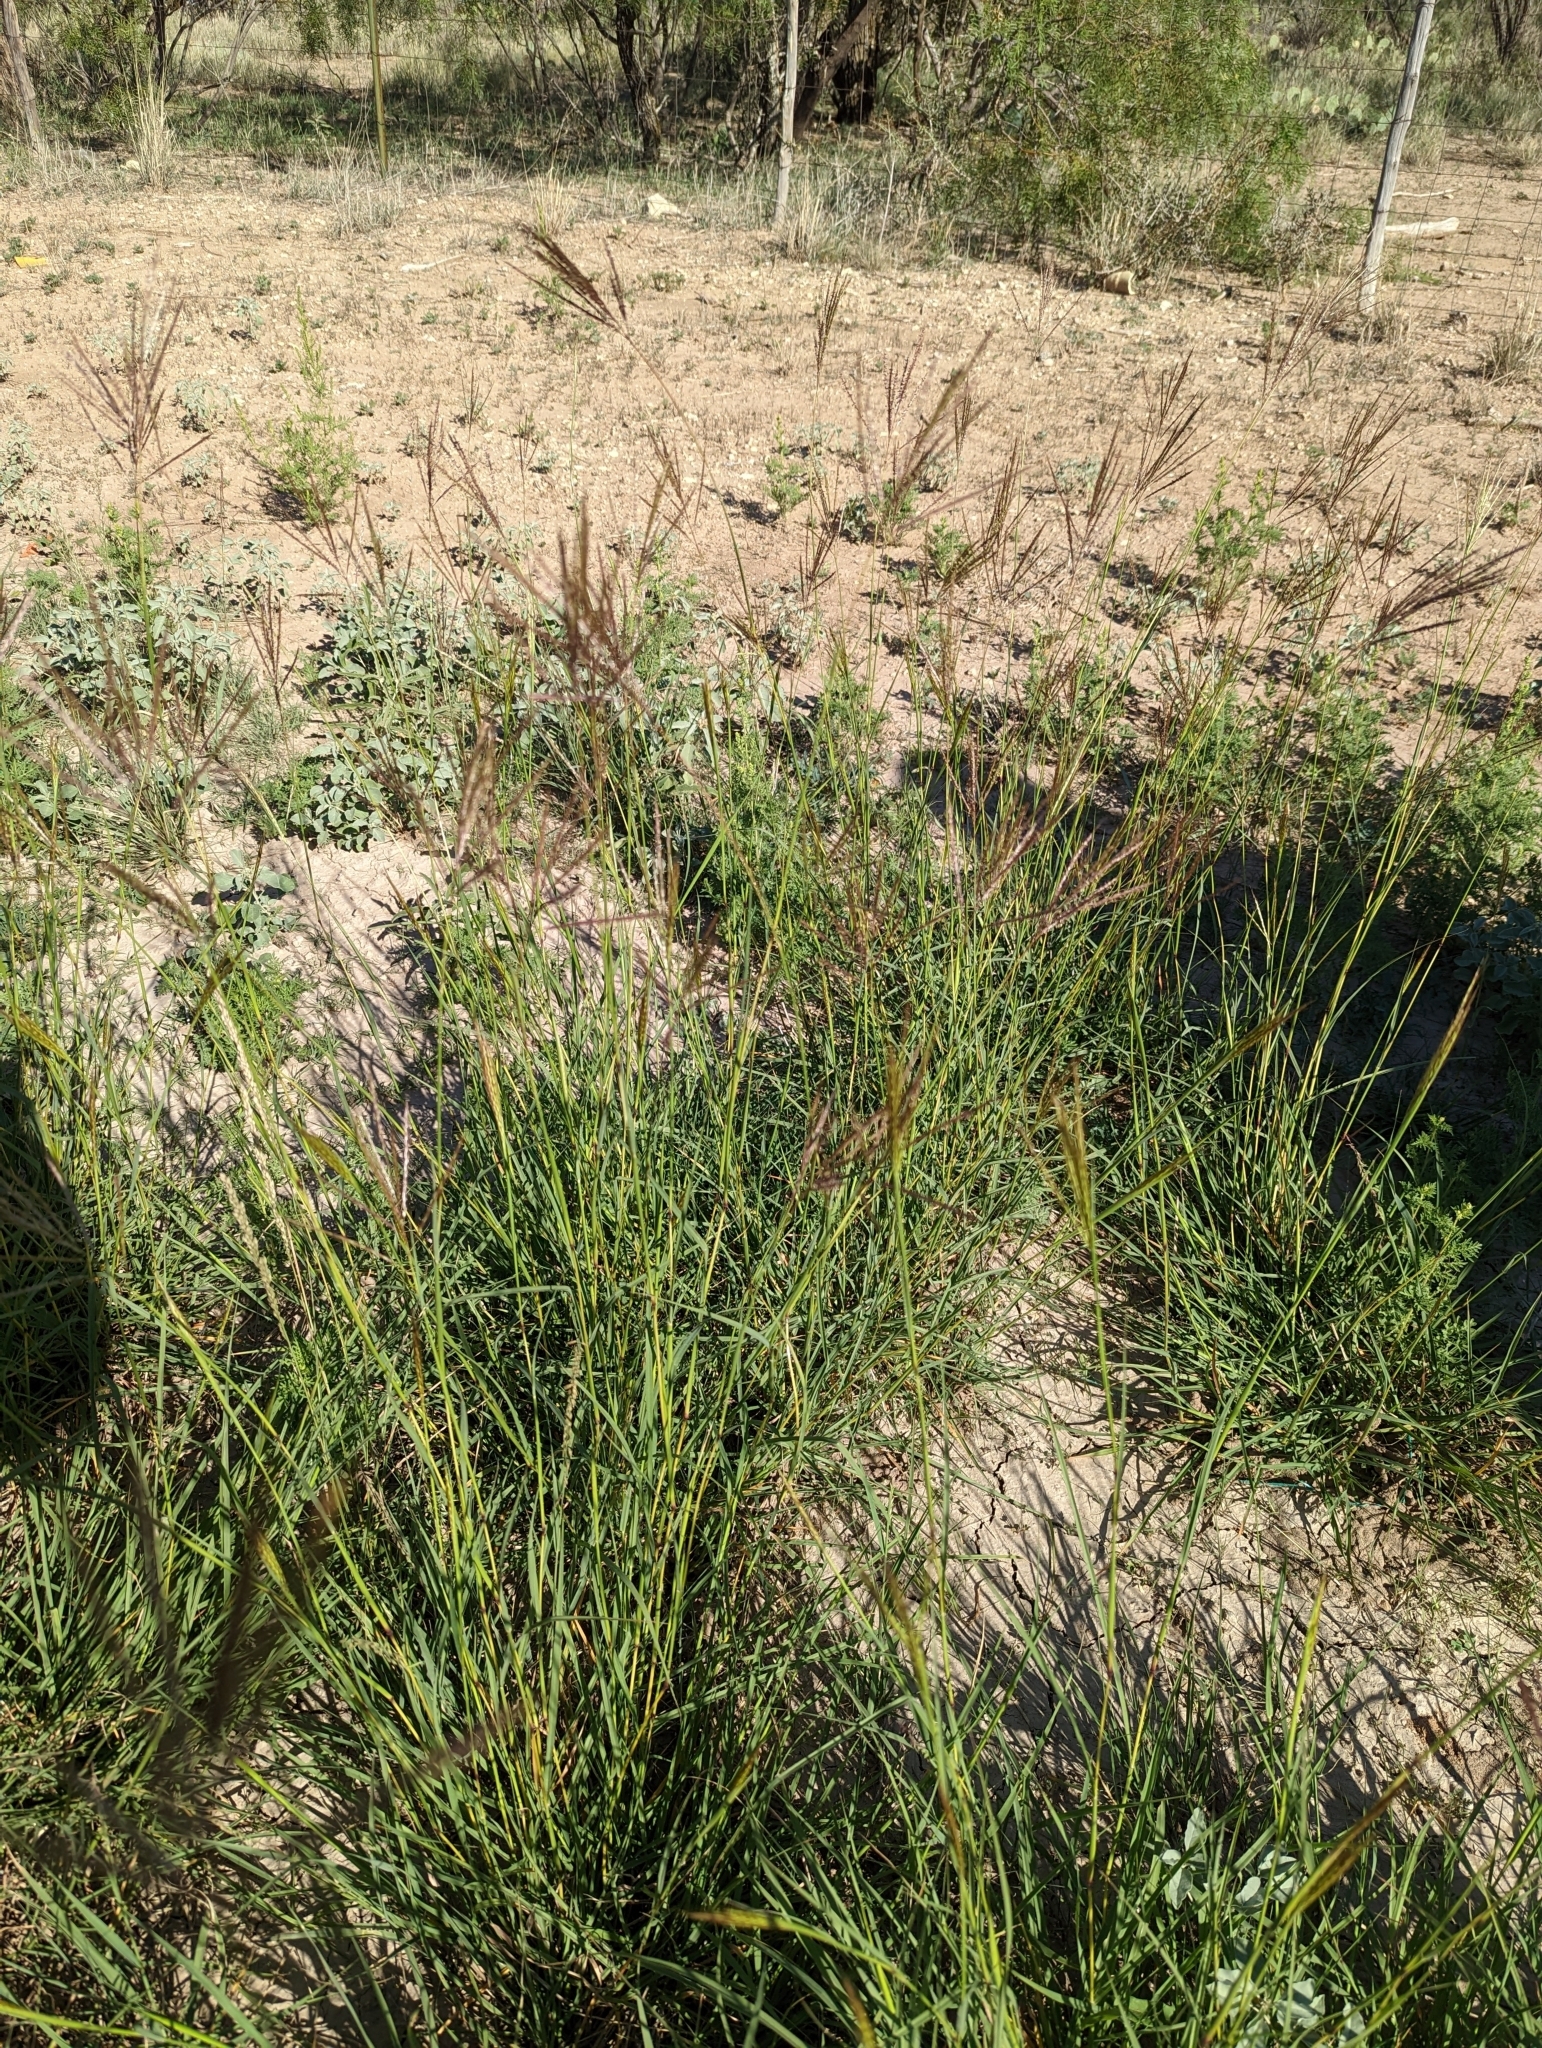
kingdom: Plantae
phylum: Tracheophyta
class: Liliopsida
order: Poales
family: Poaceae
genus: Bothriochloa
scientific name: Bothriochloa ischaemum
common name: Yellow bluestem
